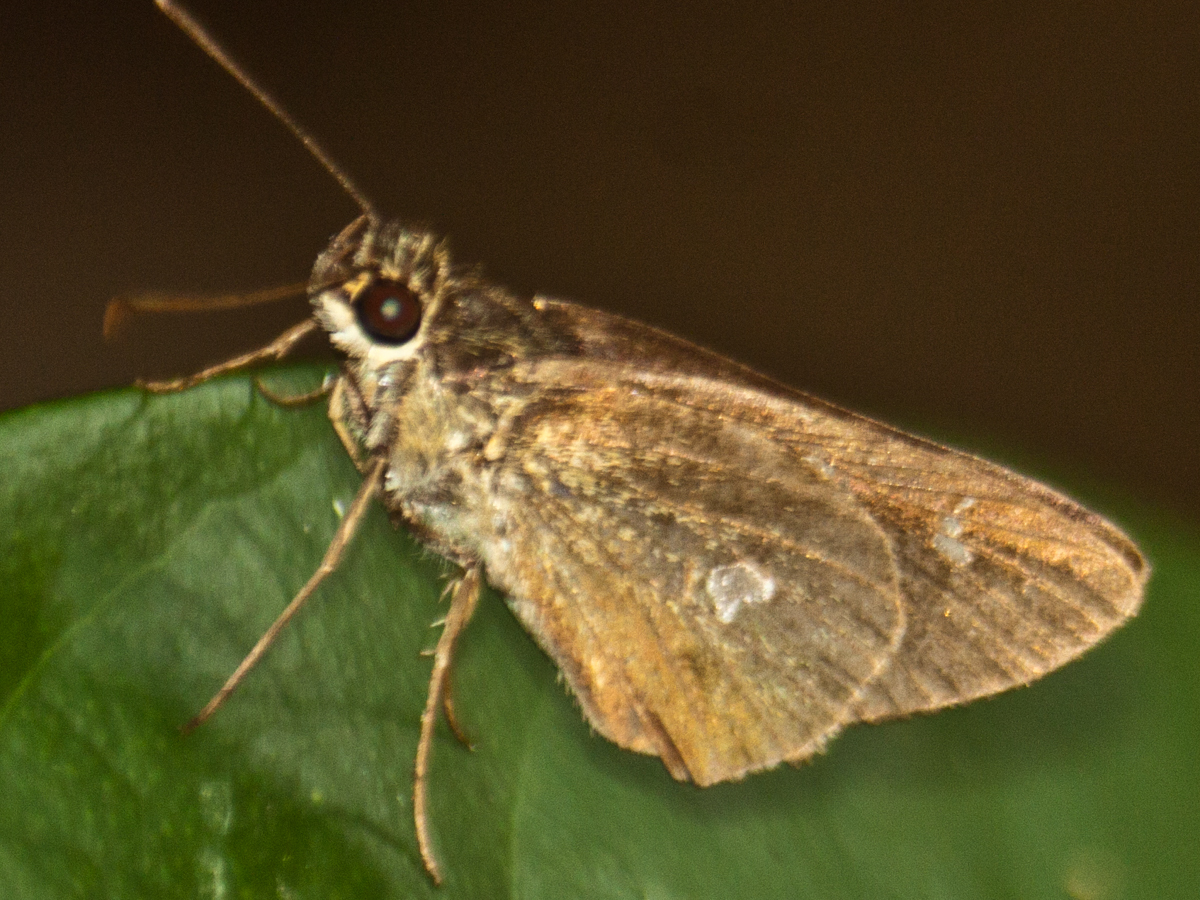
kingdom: Animalia
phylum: Arthropoda
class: Insecta
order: Lepidoptera
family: Hesperiidae
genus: Scobura
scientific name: Scobura phiditia
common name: Malay forest bob
